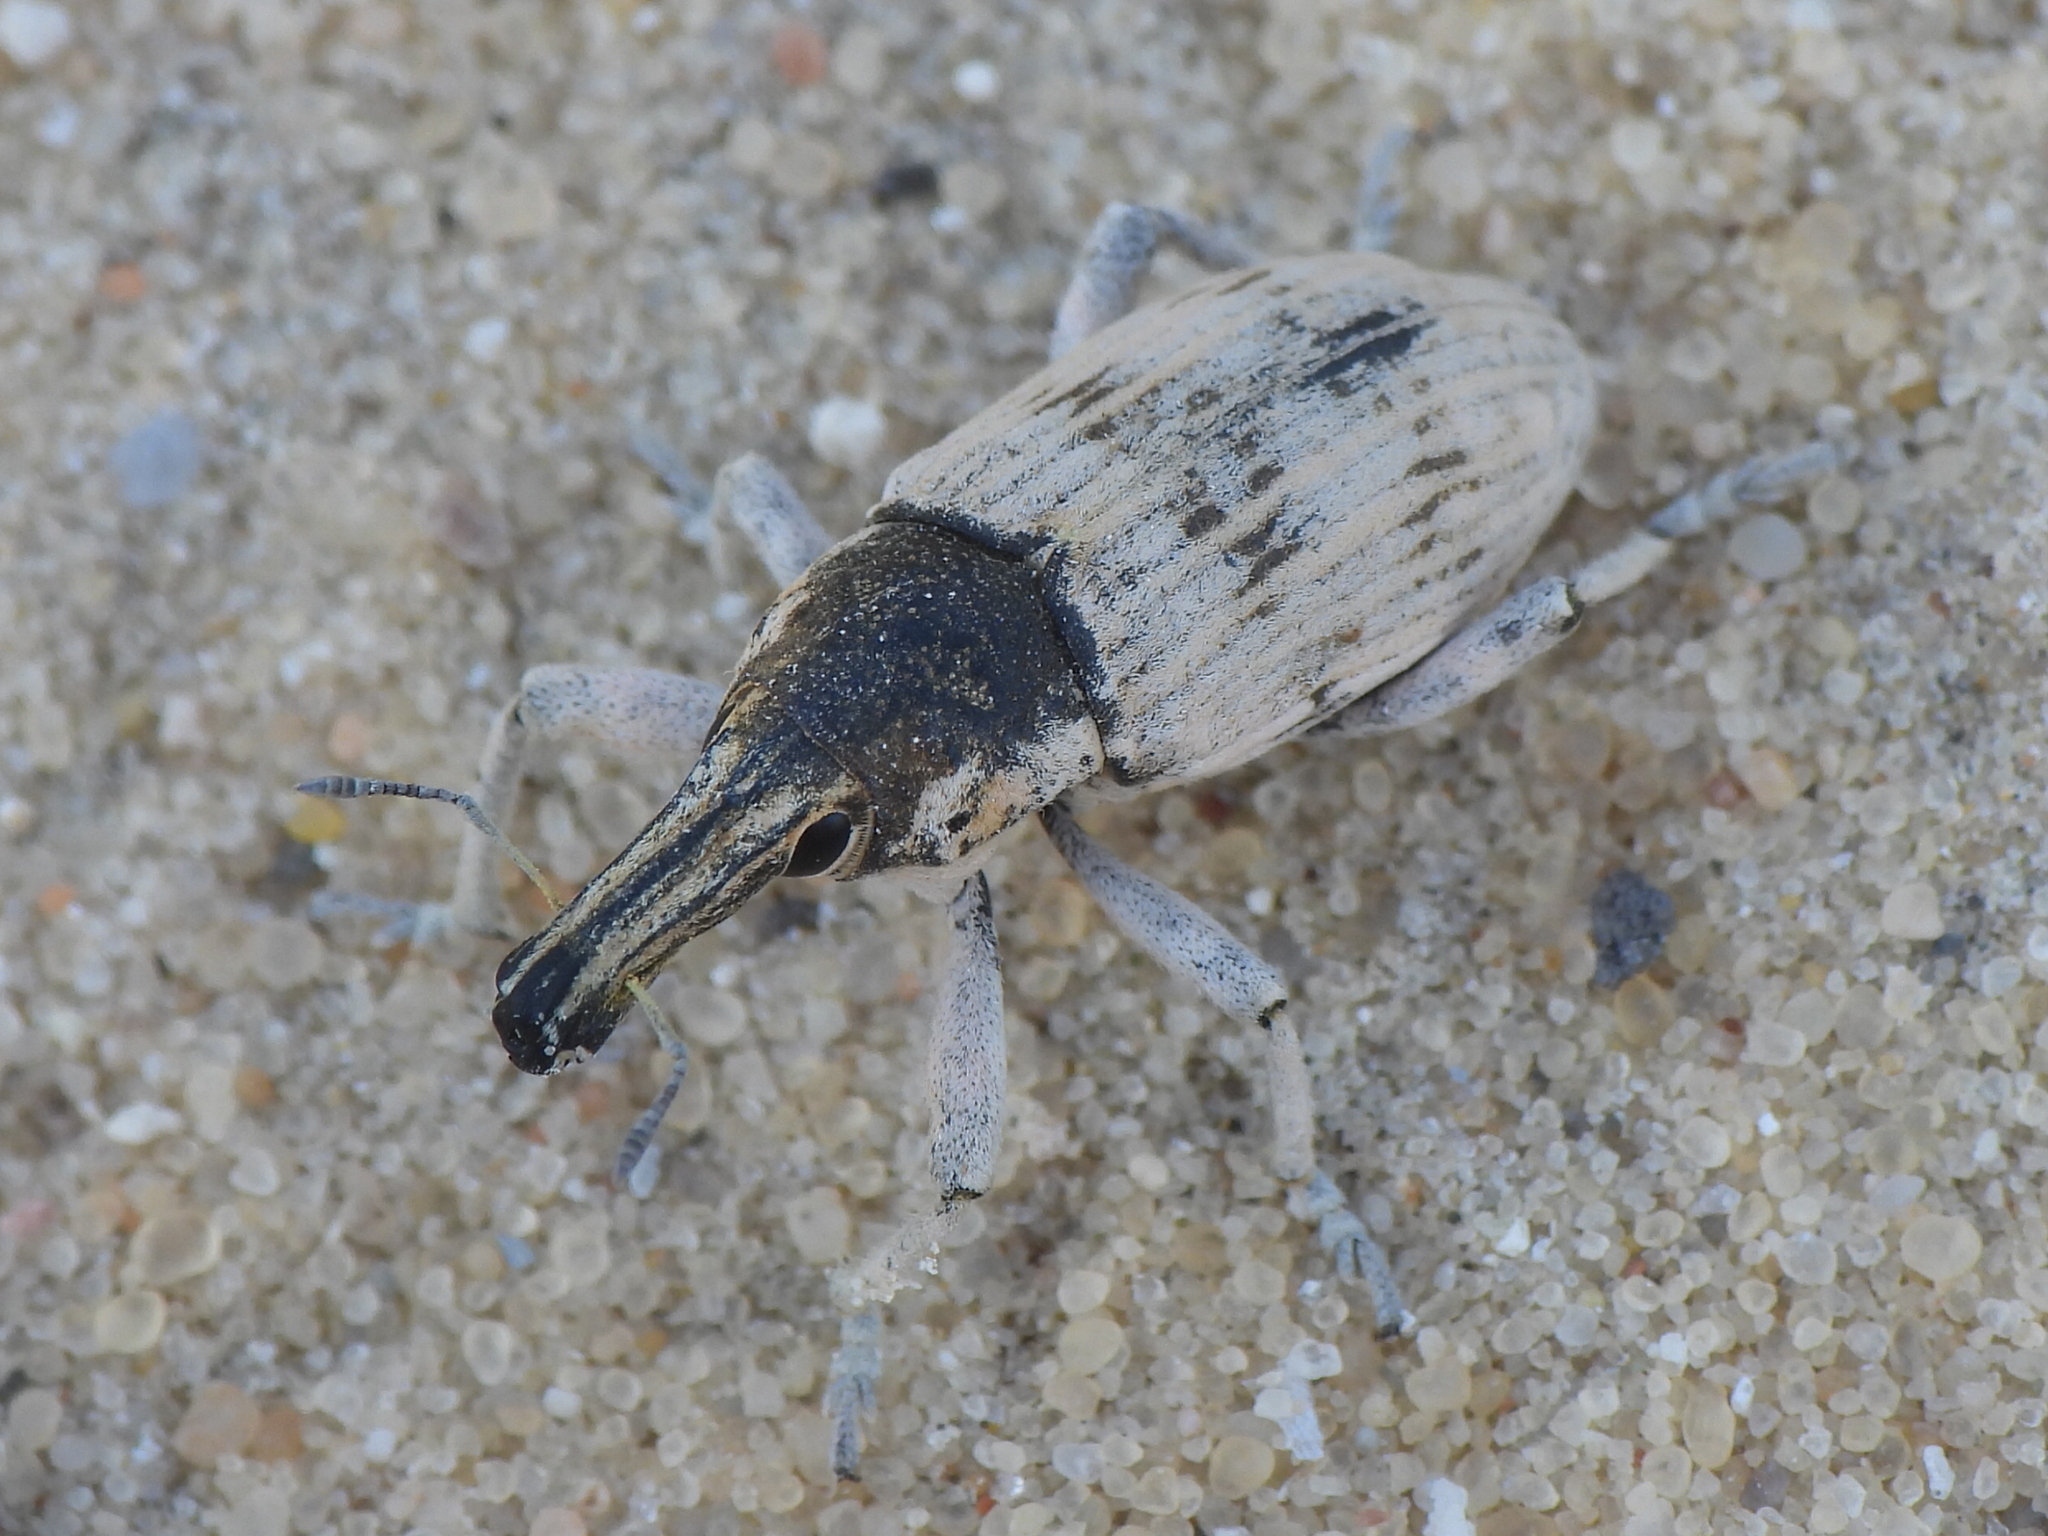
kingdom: Animalia
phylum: Arthropoda
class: Insecta
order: Coleoptera
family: Curculionidae
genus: Ammocleonus
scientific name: Ammocleonus hieroglyphicus
